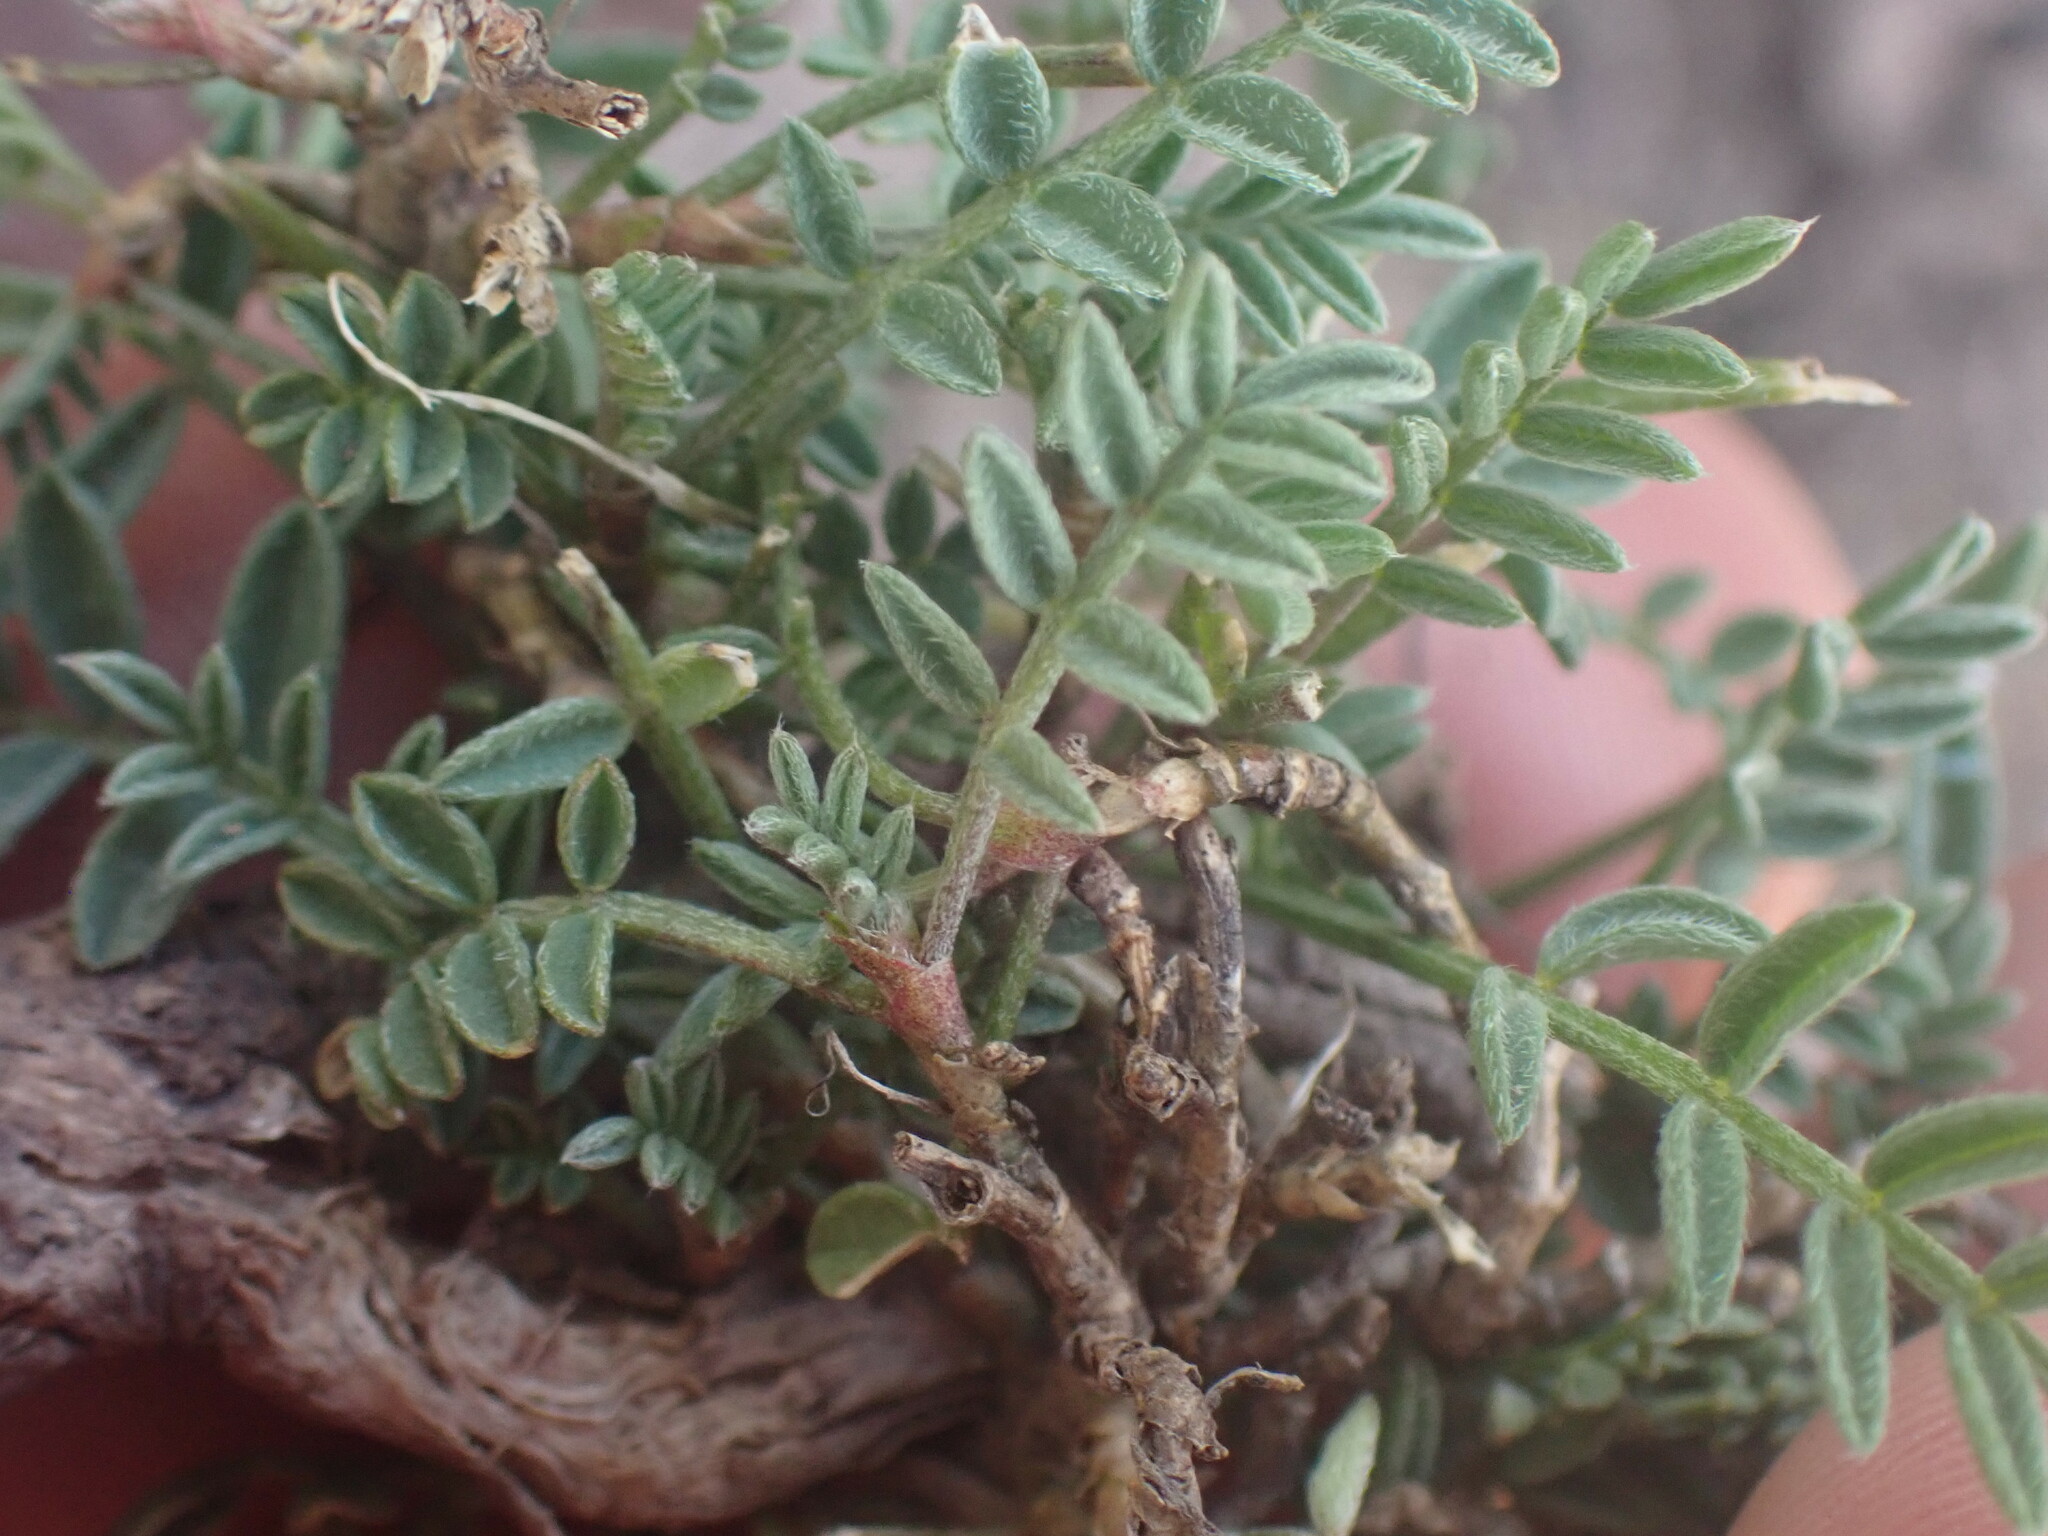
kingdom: Plantae
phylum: Tracheophyta
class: Magnoliopsida
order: Fabales
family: Fabaceae
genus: Astragalus
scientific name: Astragalus bourgovii
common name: Bourgeau's milk-vetch
